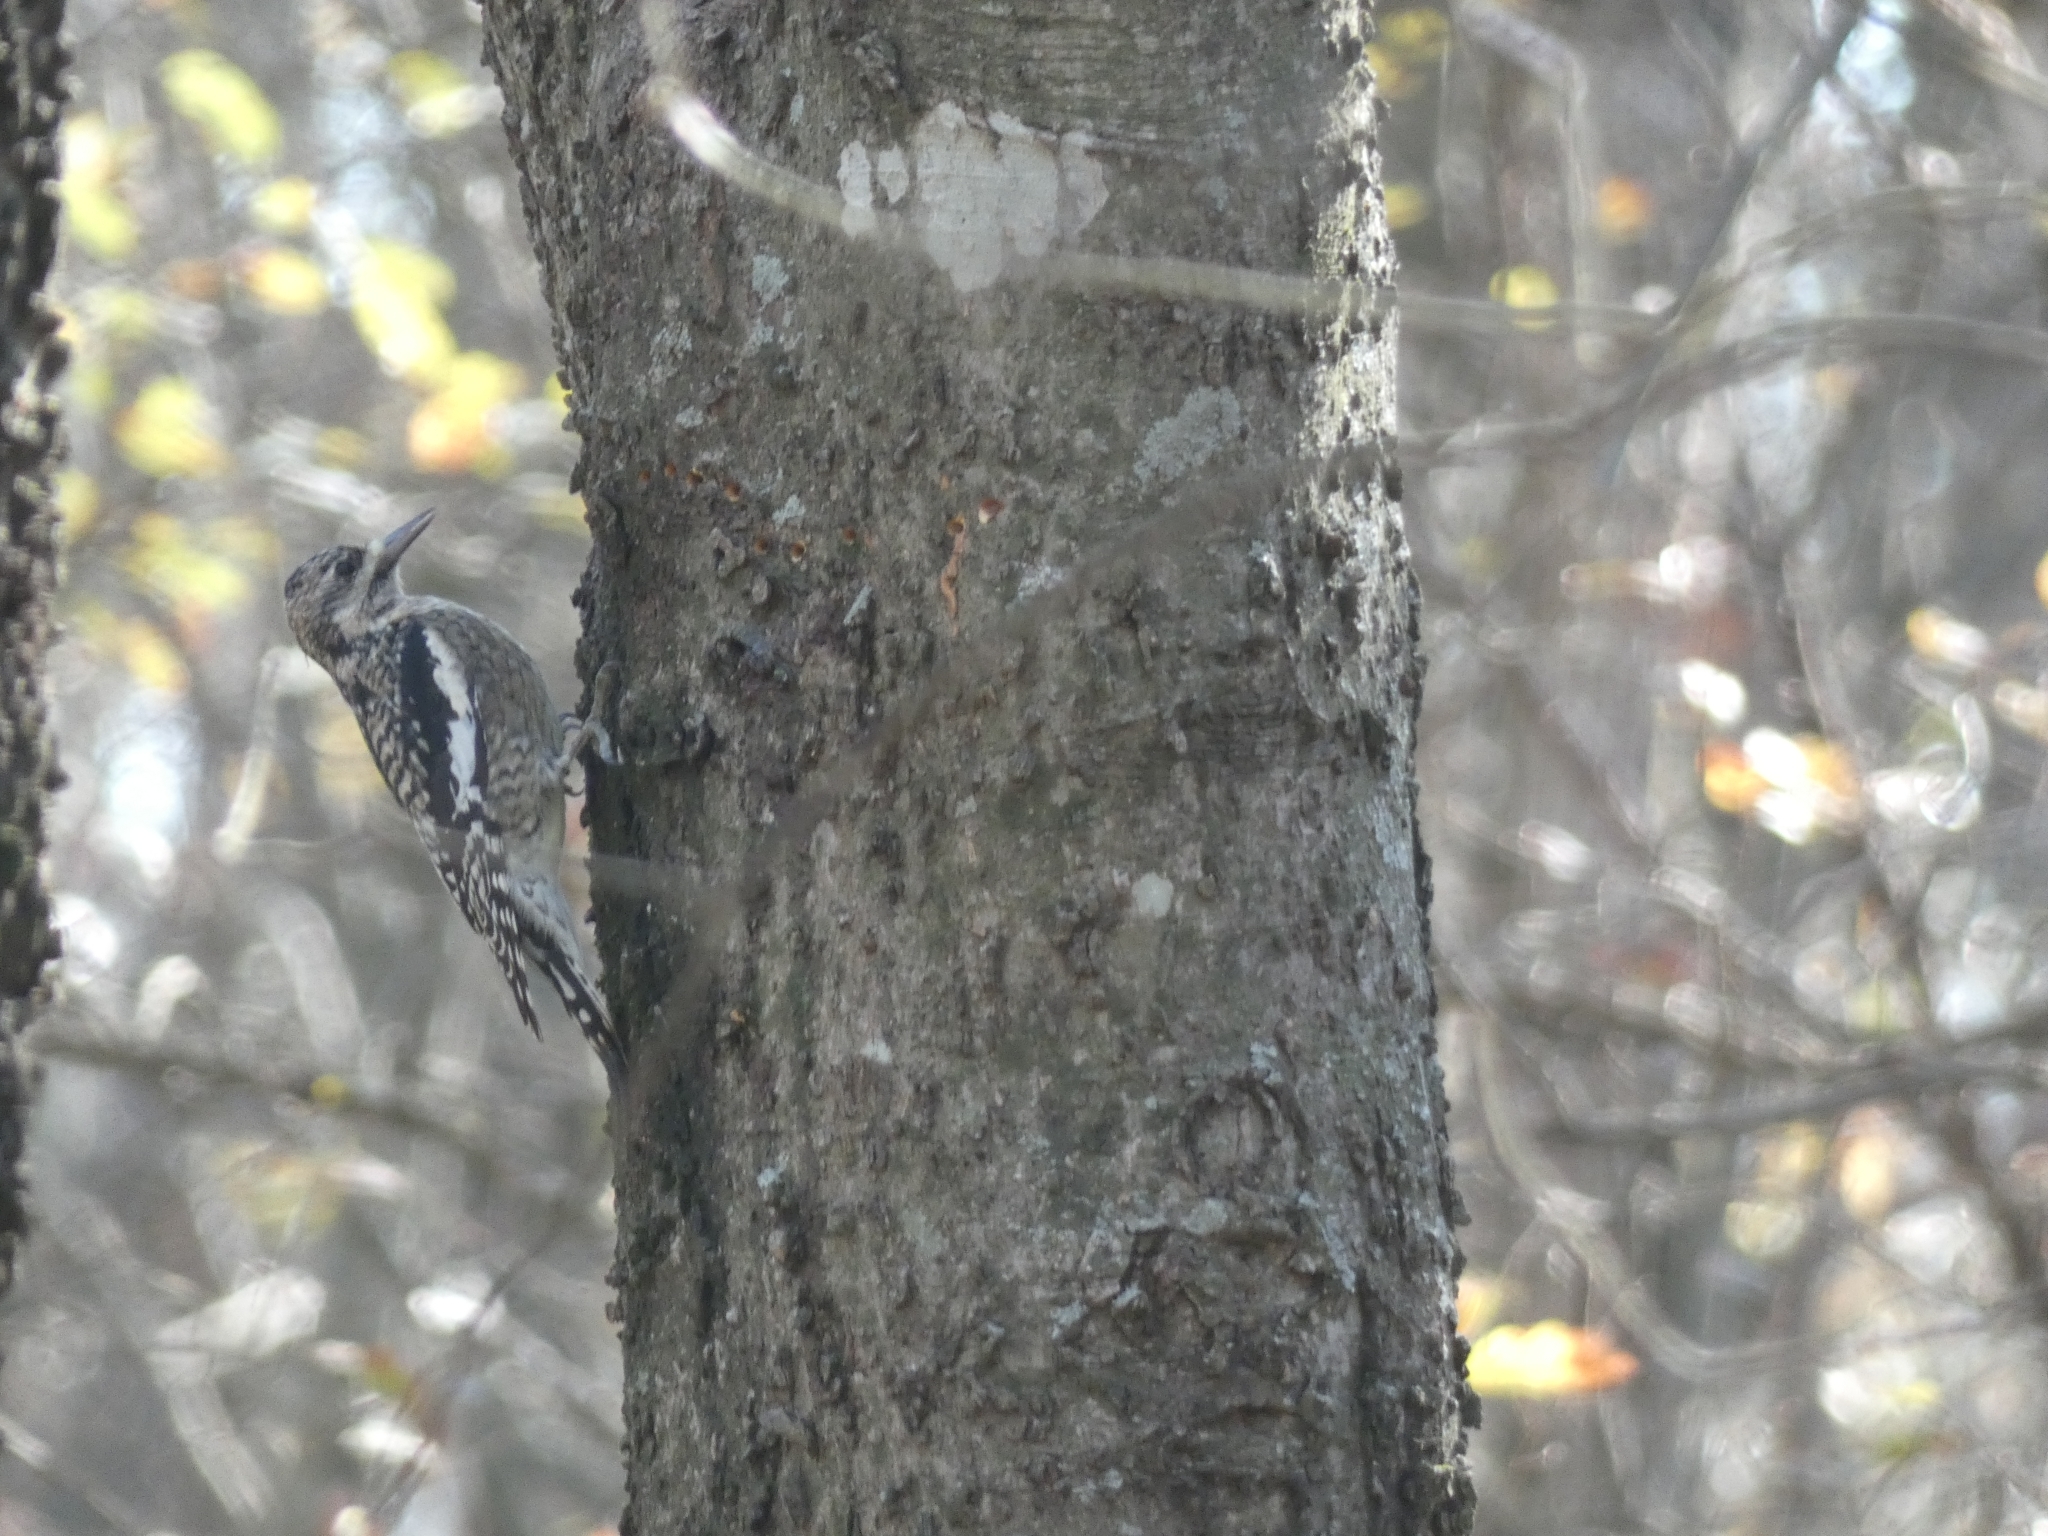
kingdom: Animalia
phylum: Chordata
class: Aves
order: Piciformes
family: Picidae
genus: Sphyrapicus
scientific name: Sphyrapicus varius
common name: Yellow-bellied sapsucker
